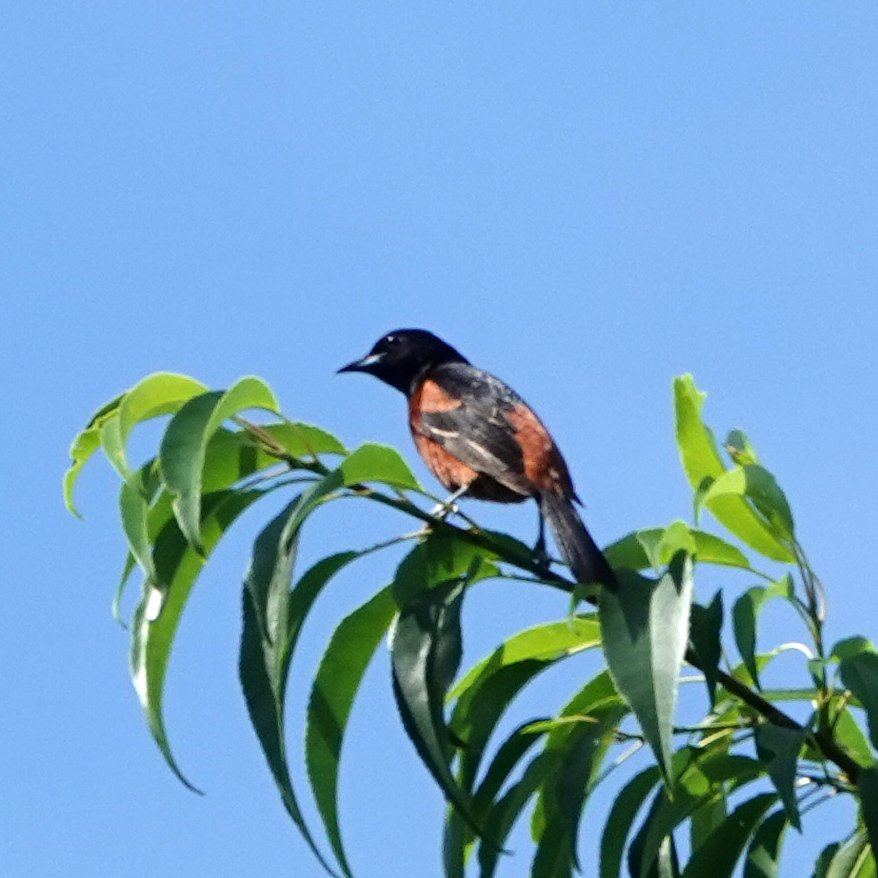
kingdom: Animalia
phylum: Chordata
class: Aves
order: Passeriformes
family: Icteridae
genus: Icterus
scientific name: Icterus spurius
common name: Orchard oriole
